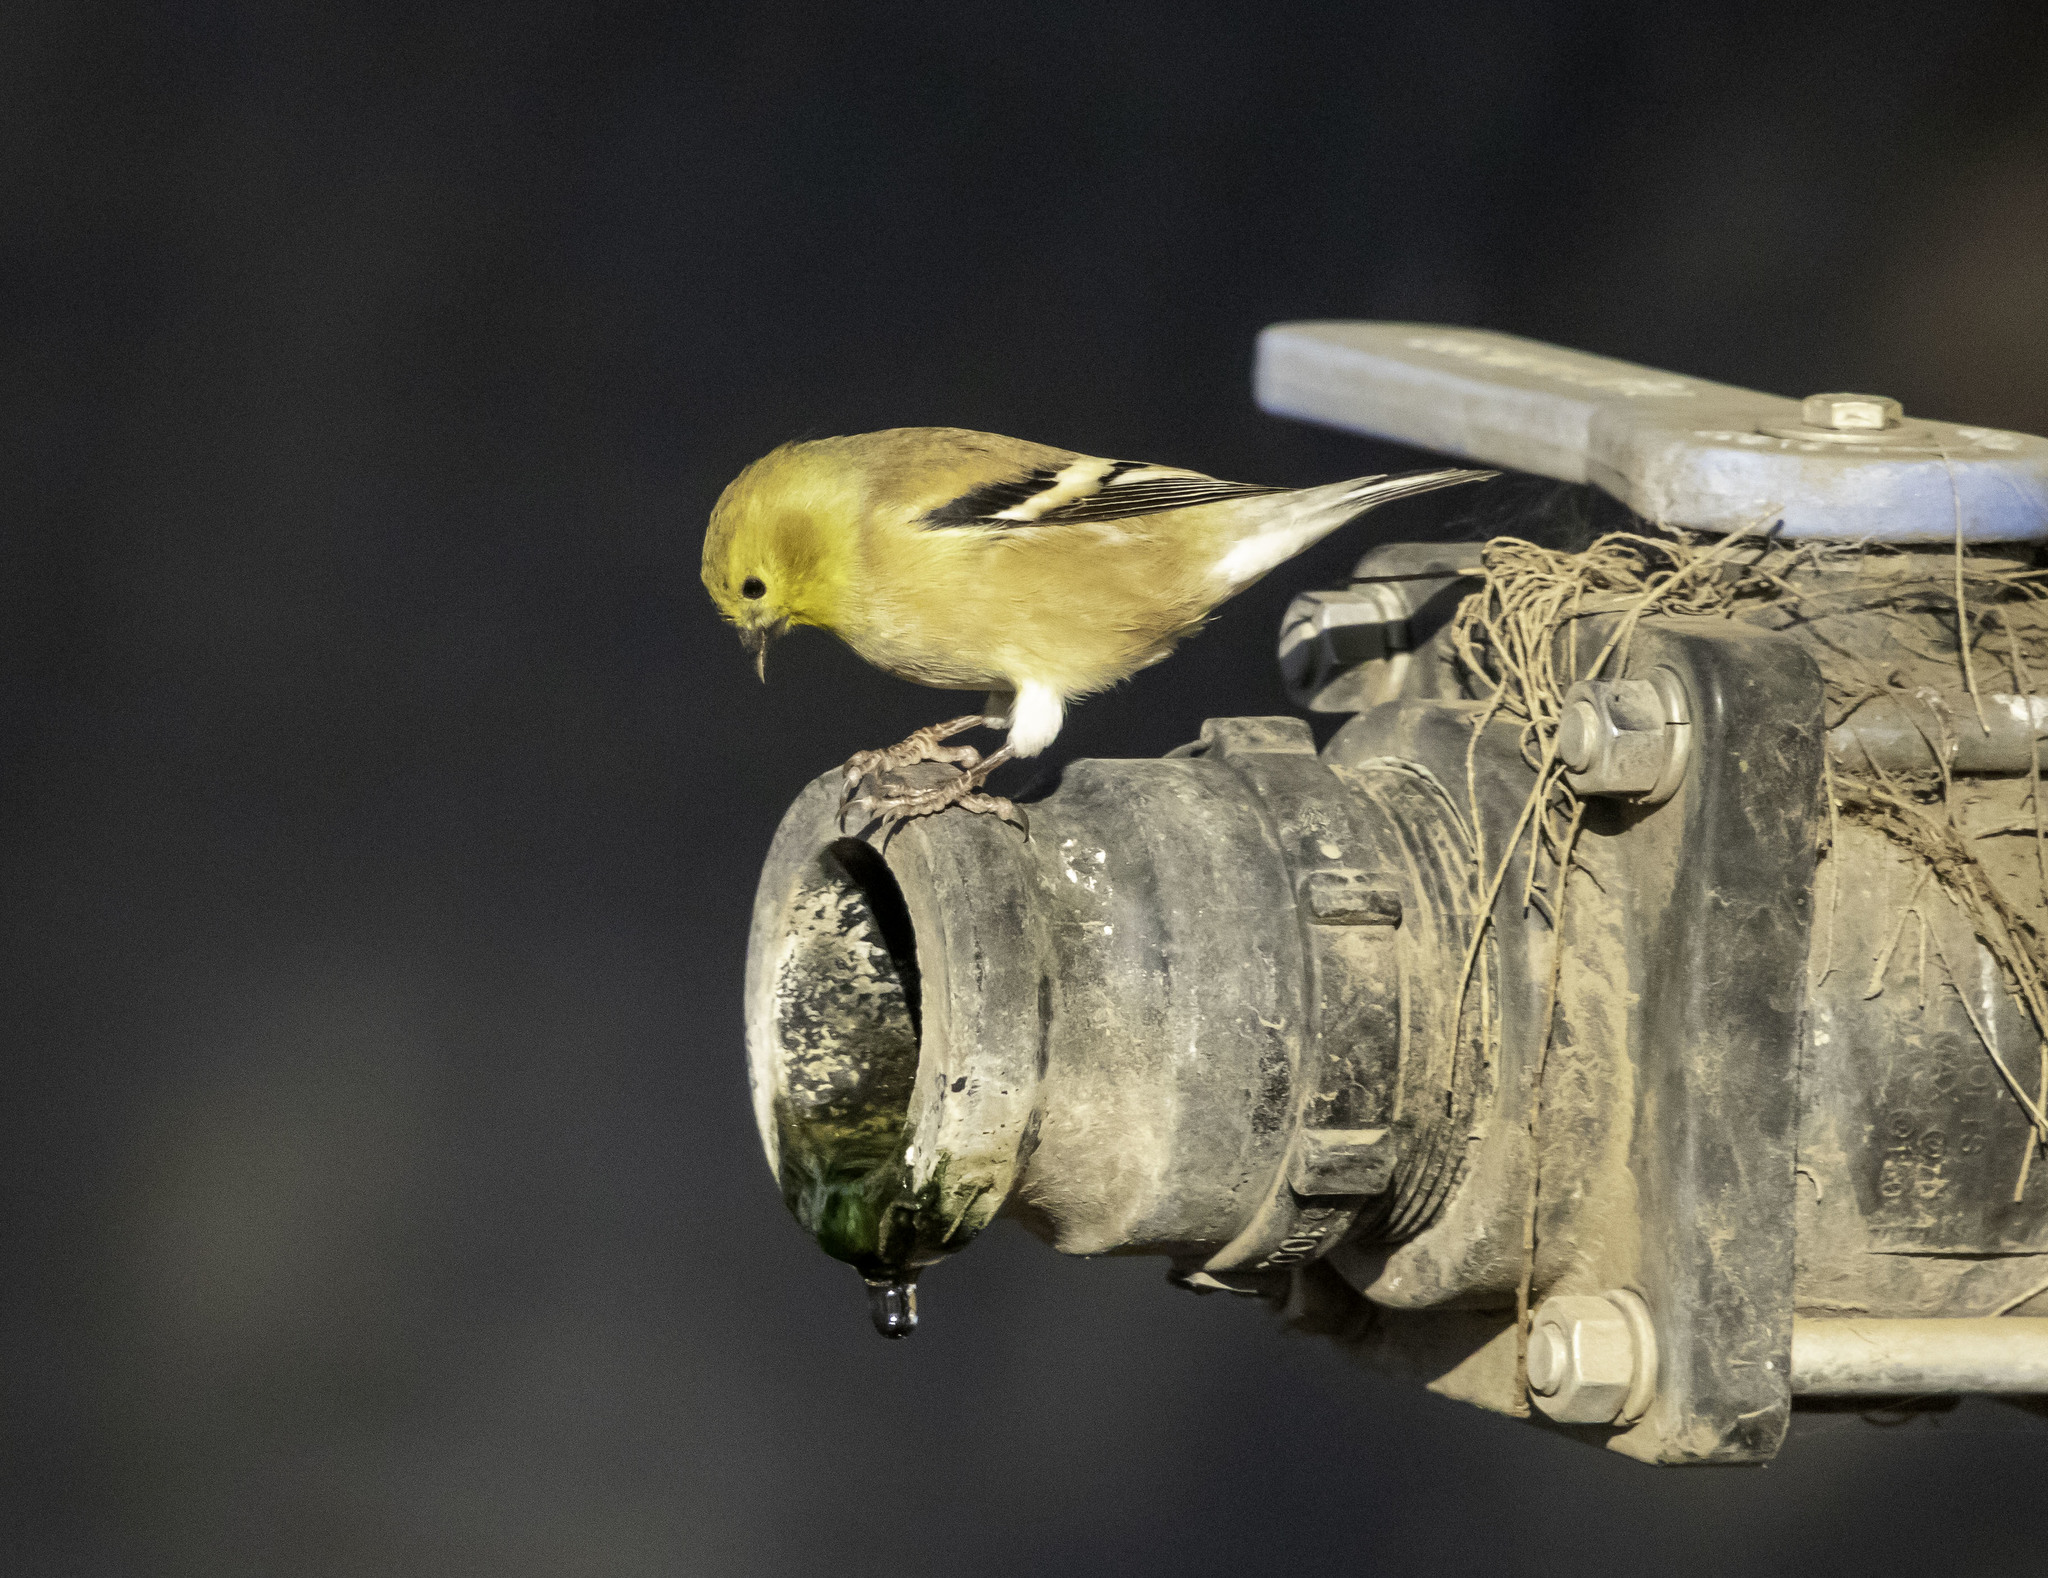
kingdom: Animalia
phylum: Chordata
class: Aves
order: Passeriformes
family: Fringillidae
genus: Spinus
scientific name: Spinus tristis
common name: American goldfinch
